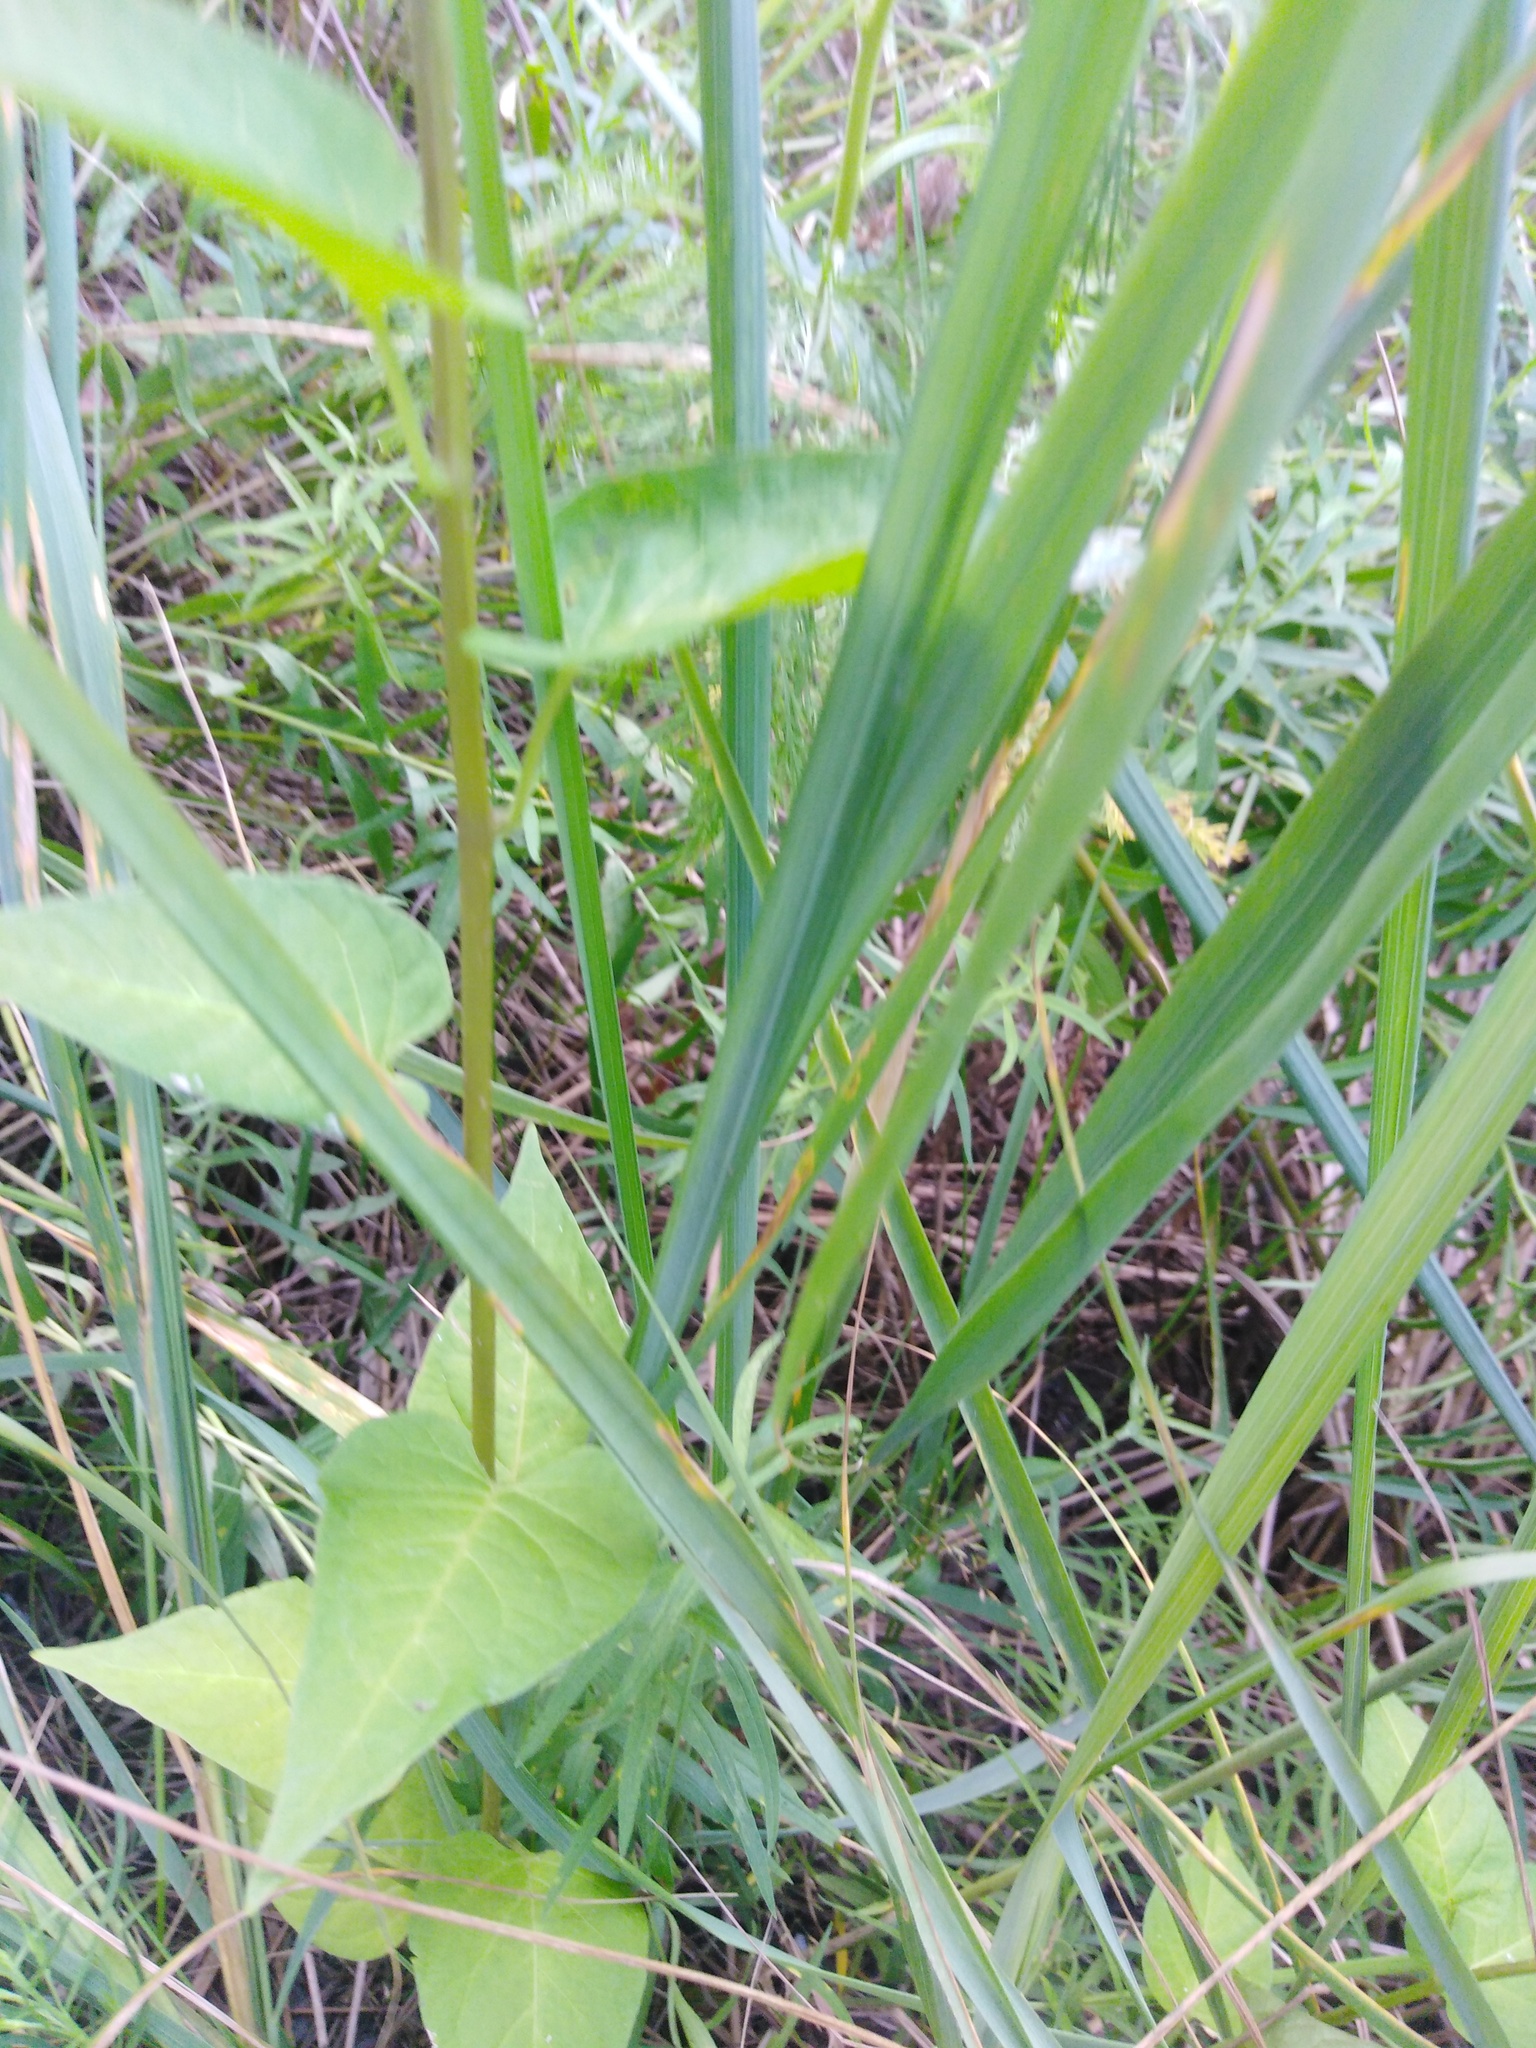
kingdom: Plantae
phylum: Tracheophyta
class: Magnoliopsida
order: Solanales
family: Solanaceae
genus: Solanum
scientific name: Solanum dulcamara
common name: Climbing nightshade
